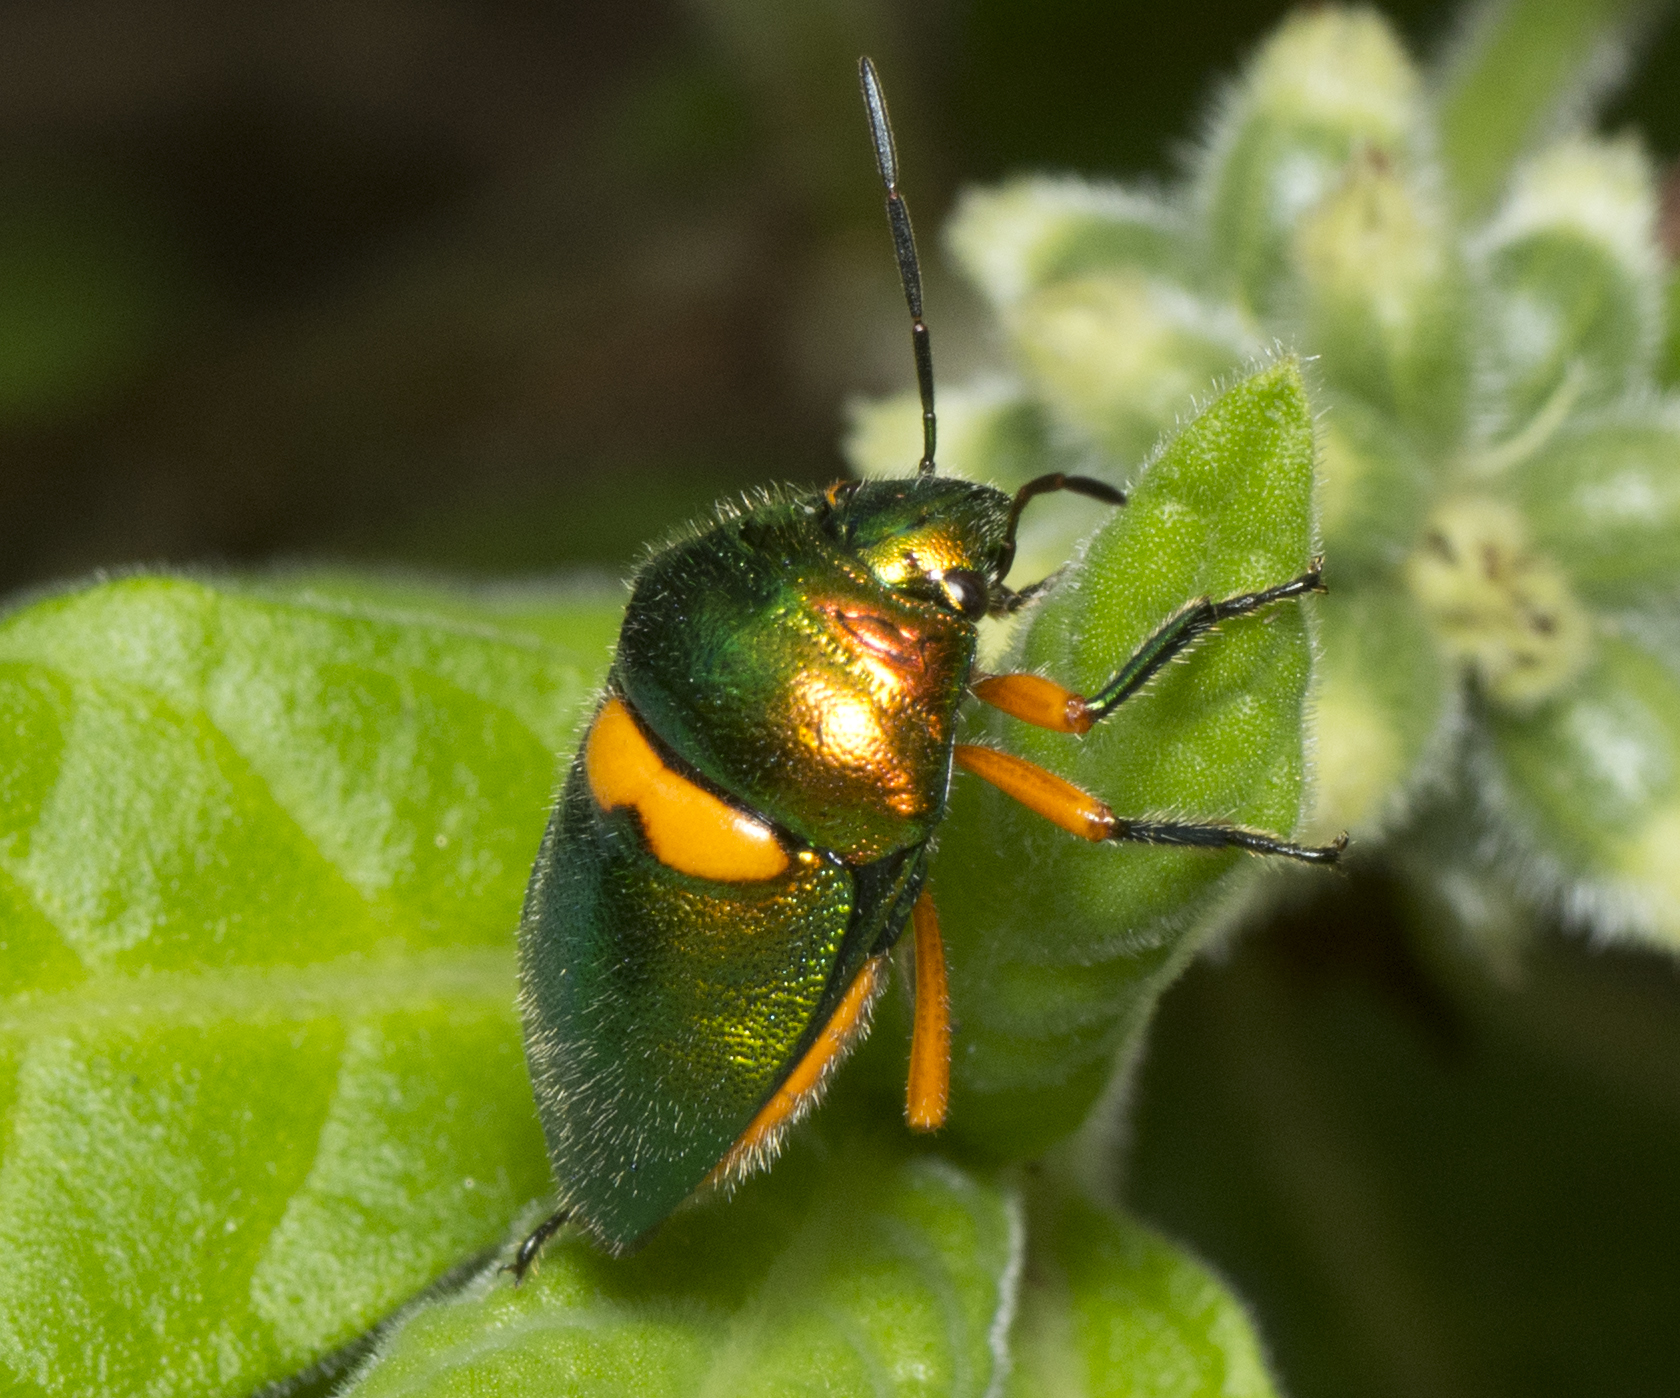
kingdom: Animalia
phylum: Arthropoda
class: Insecta
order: Hemiptera
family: Scutelleridae
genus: Lampromicra
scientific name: Lampromicra senator
